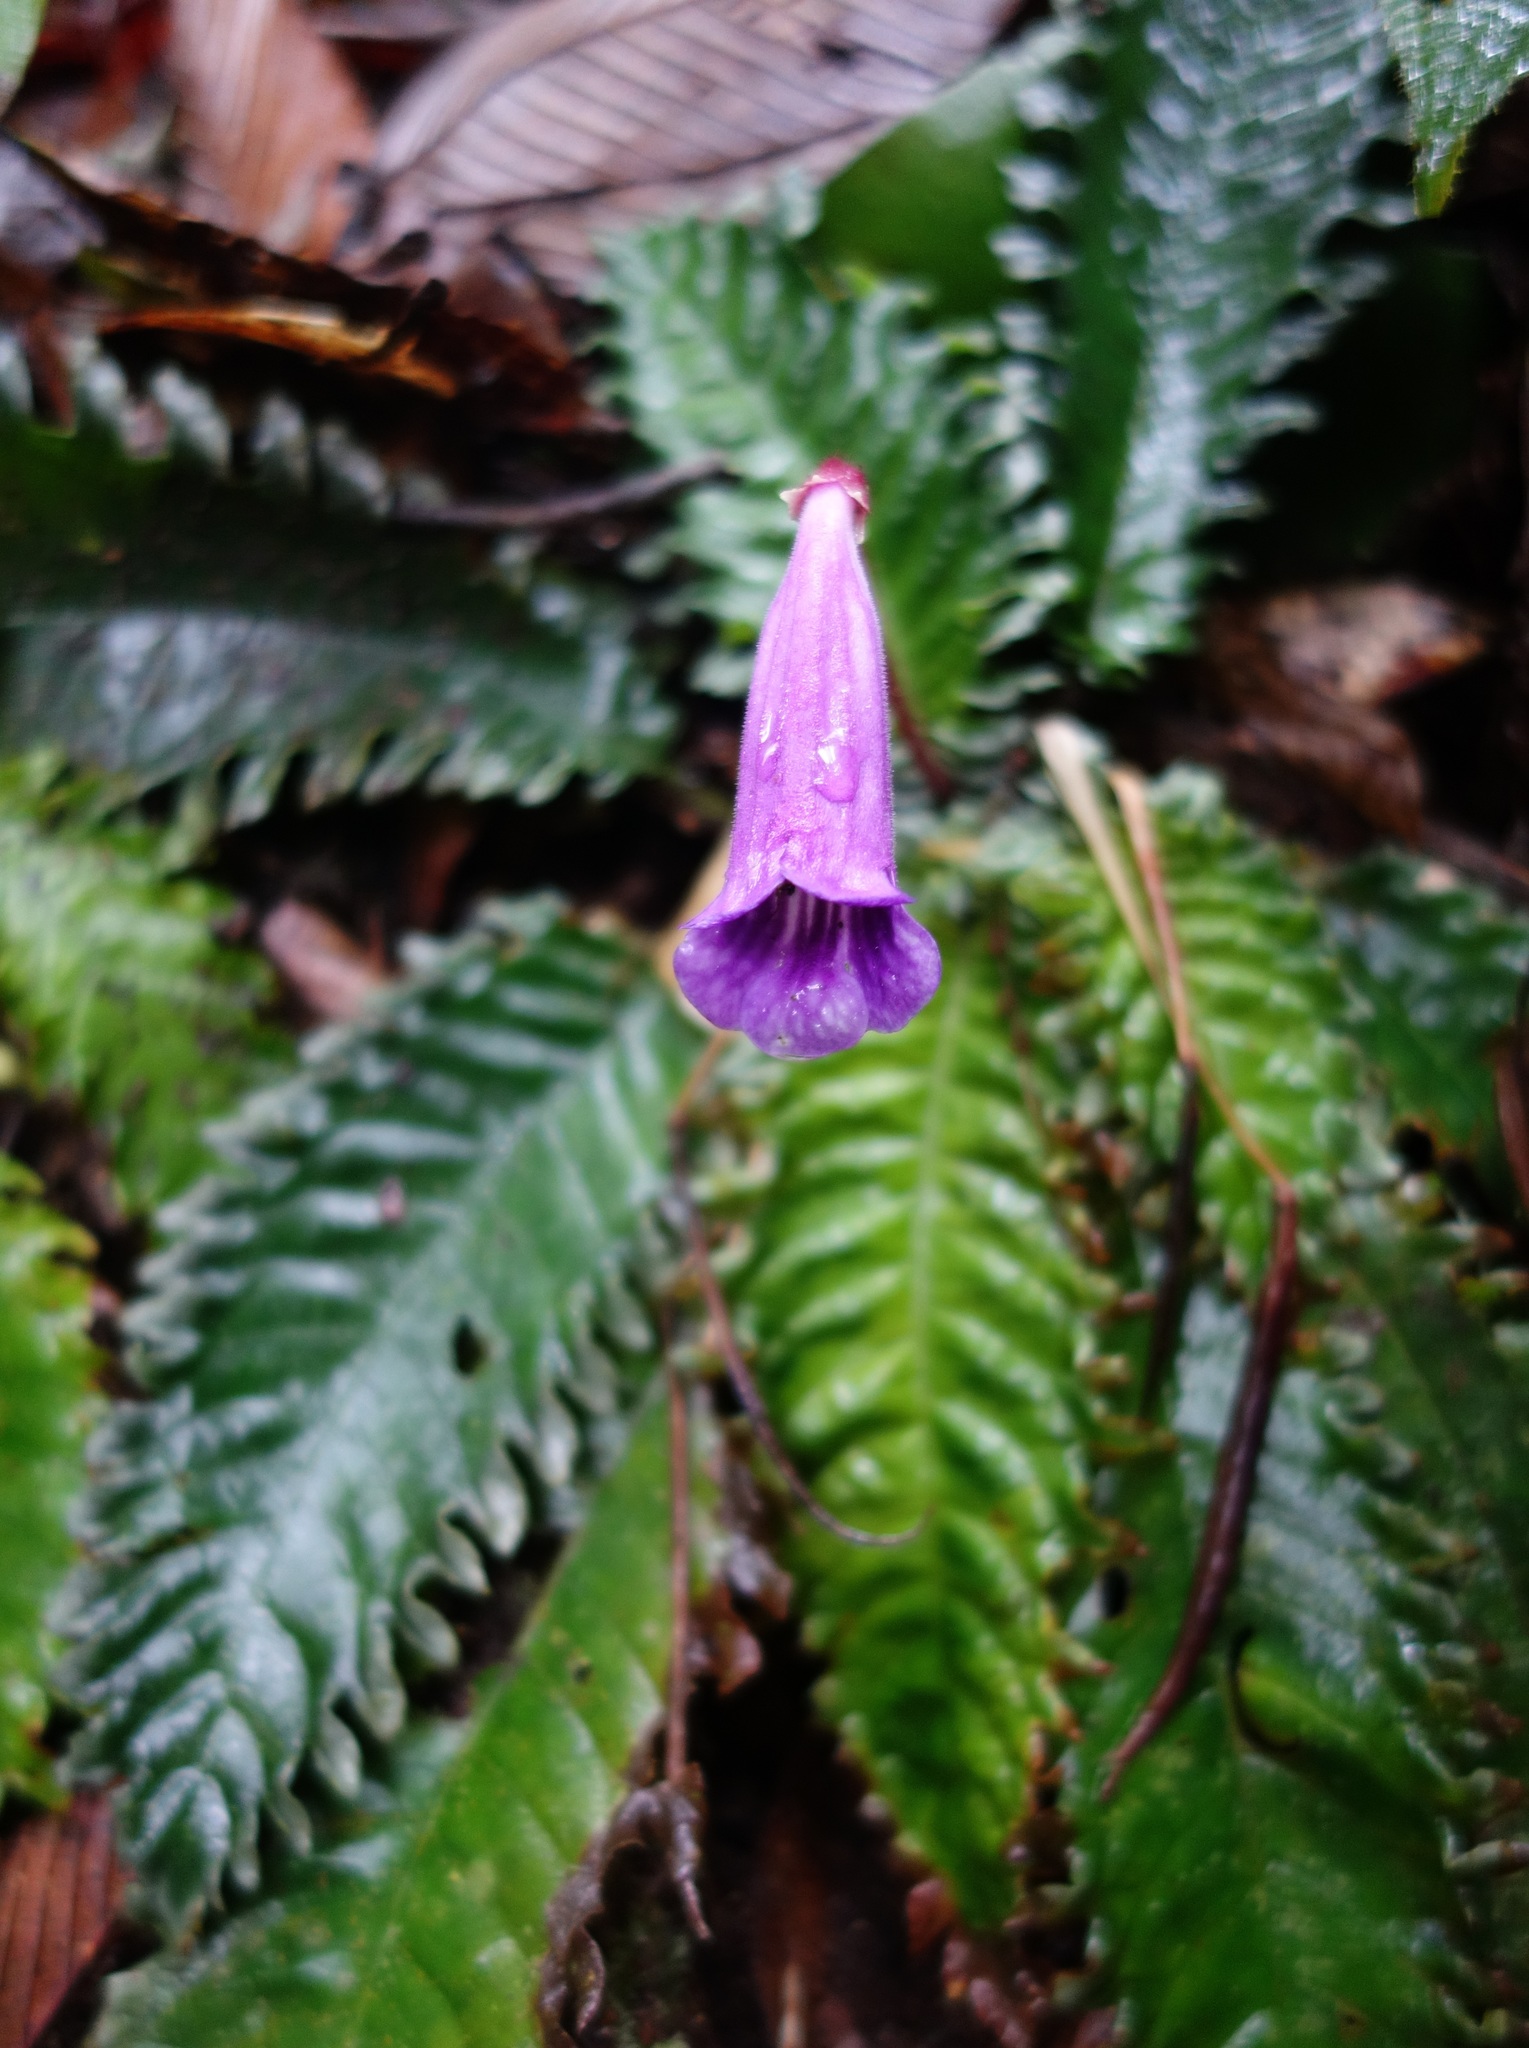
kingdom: Plantae
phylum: Tracheophyta
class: Magnoliopsida
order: Lamiales
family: Gesneriaceae
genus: Ridleyandra
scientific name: Ridleyandra morganii
